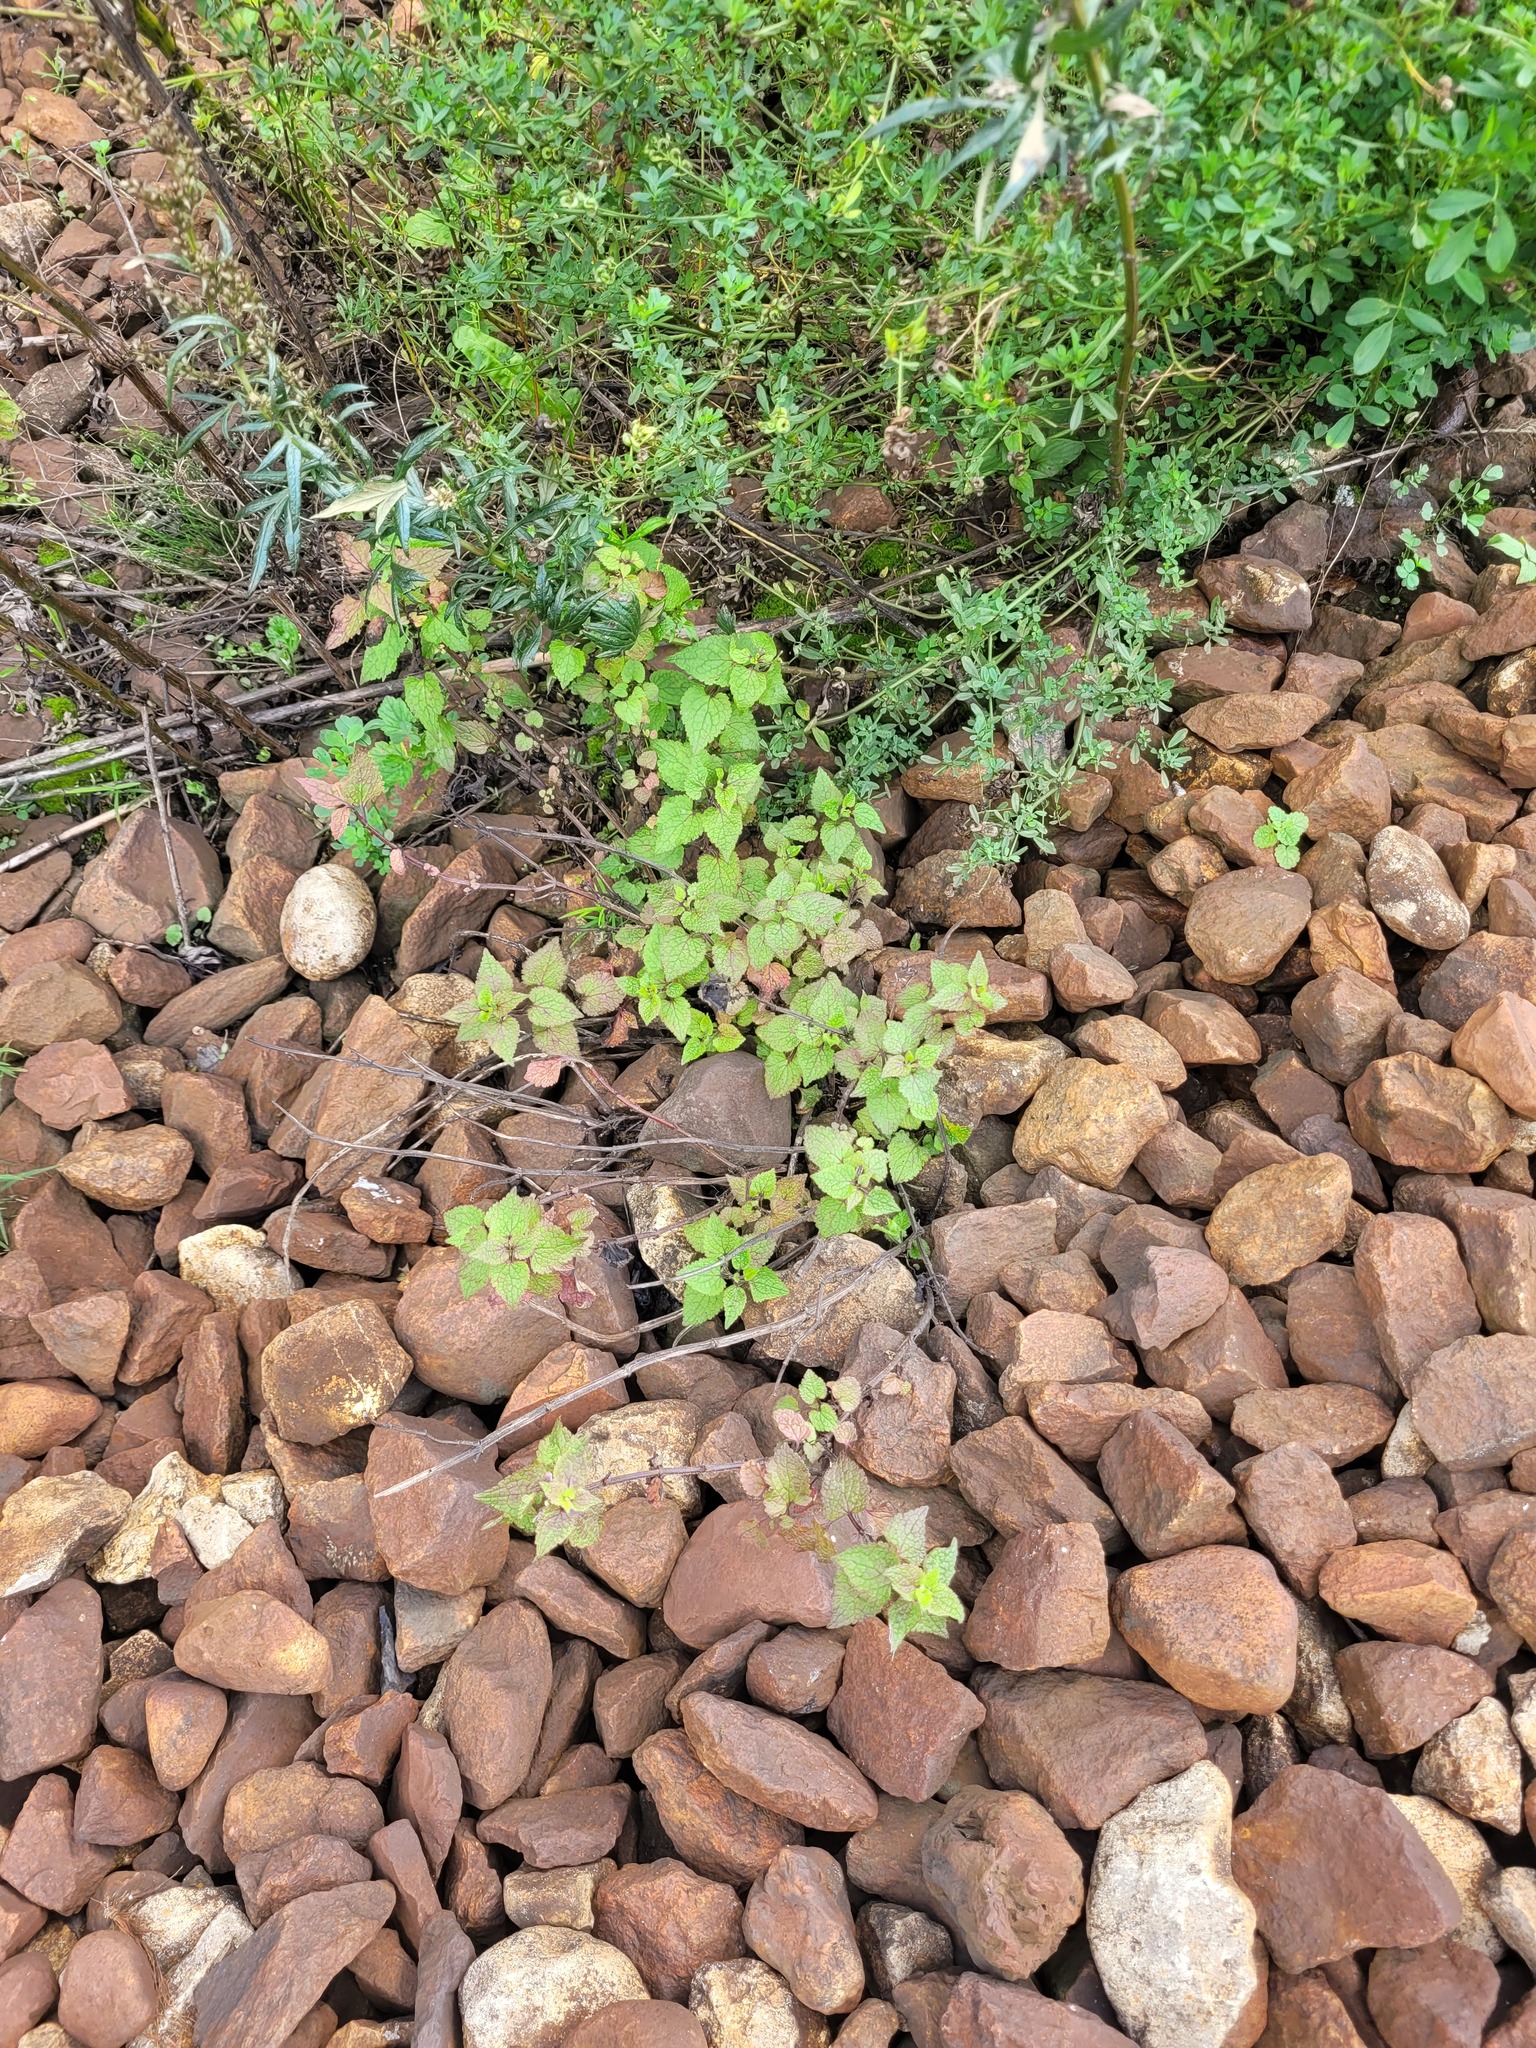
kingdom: Plantae
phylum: Tracheophyta
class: Magnoliopsida
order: Lamiales
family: Lamiaceae
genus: Lamium
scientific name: Lamium maculatum
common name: Spotted dead-nettle
